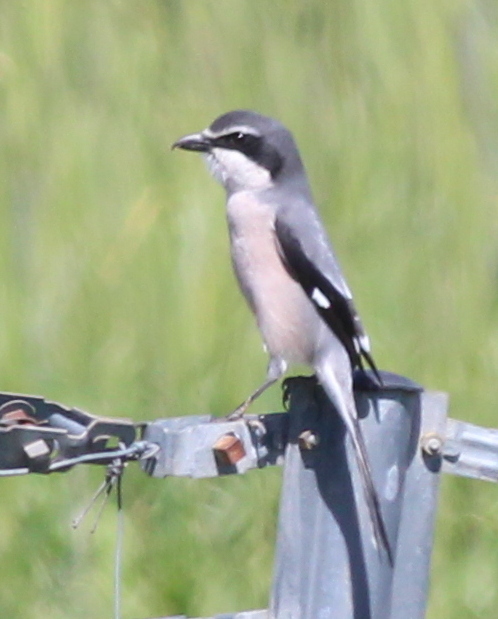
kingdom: Animalia
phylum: Chordata
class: Aves
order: Passeriformes
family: Laniidae
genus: Lanius
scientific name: Lanius meridionalis
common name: Iberian grey shrike
